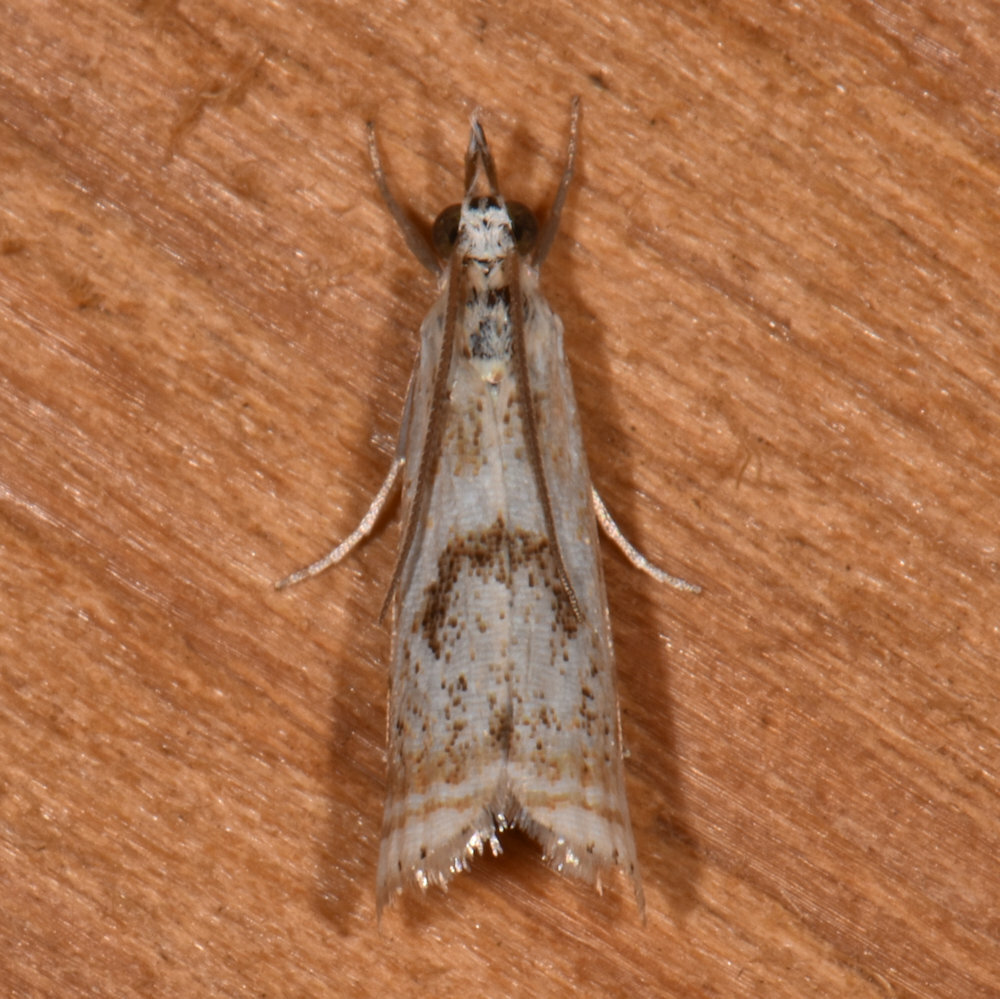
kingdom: Animalia
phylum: Arthropoda
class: Insecta
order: Lepidoptera
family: Crambidae
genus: Microcrambus
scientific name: Microcrambus elegans
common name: Elegant grass-veneer
